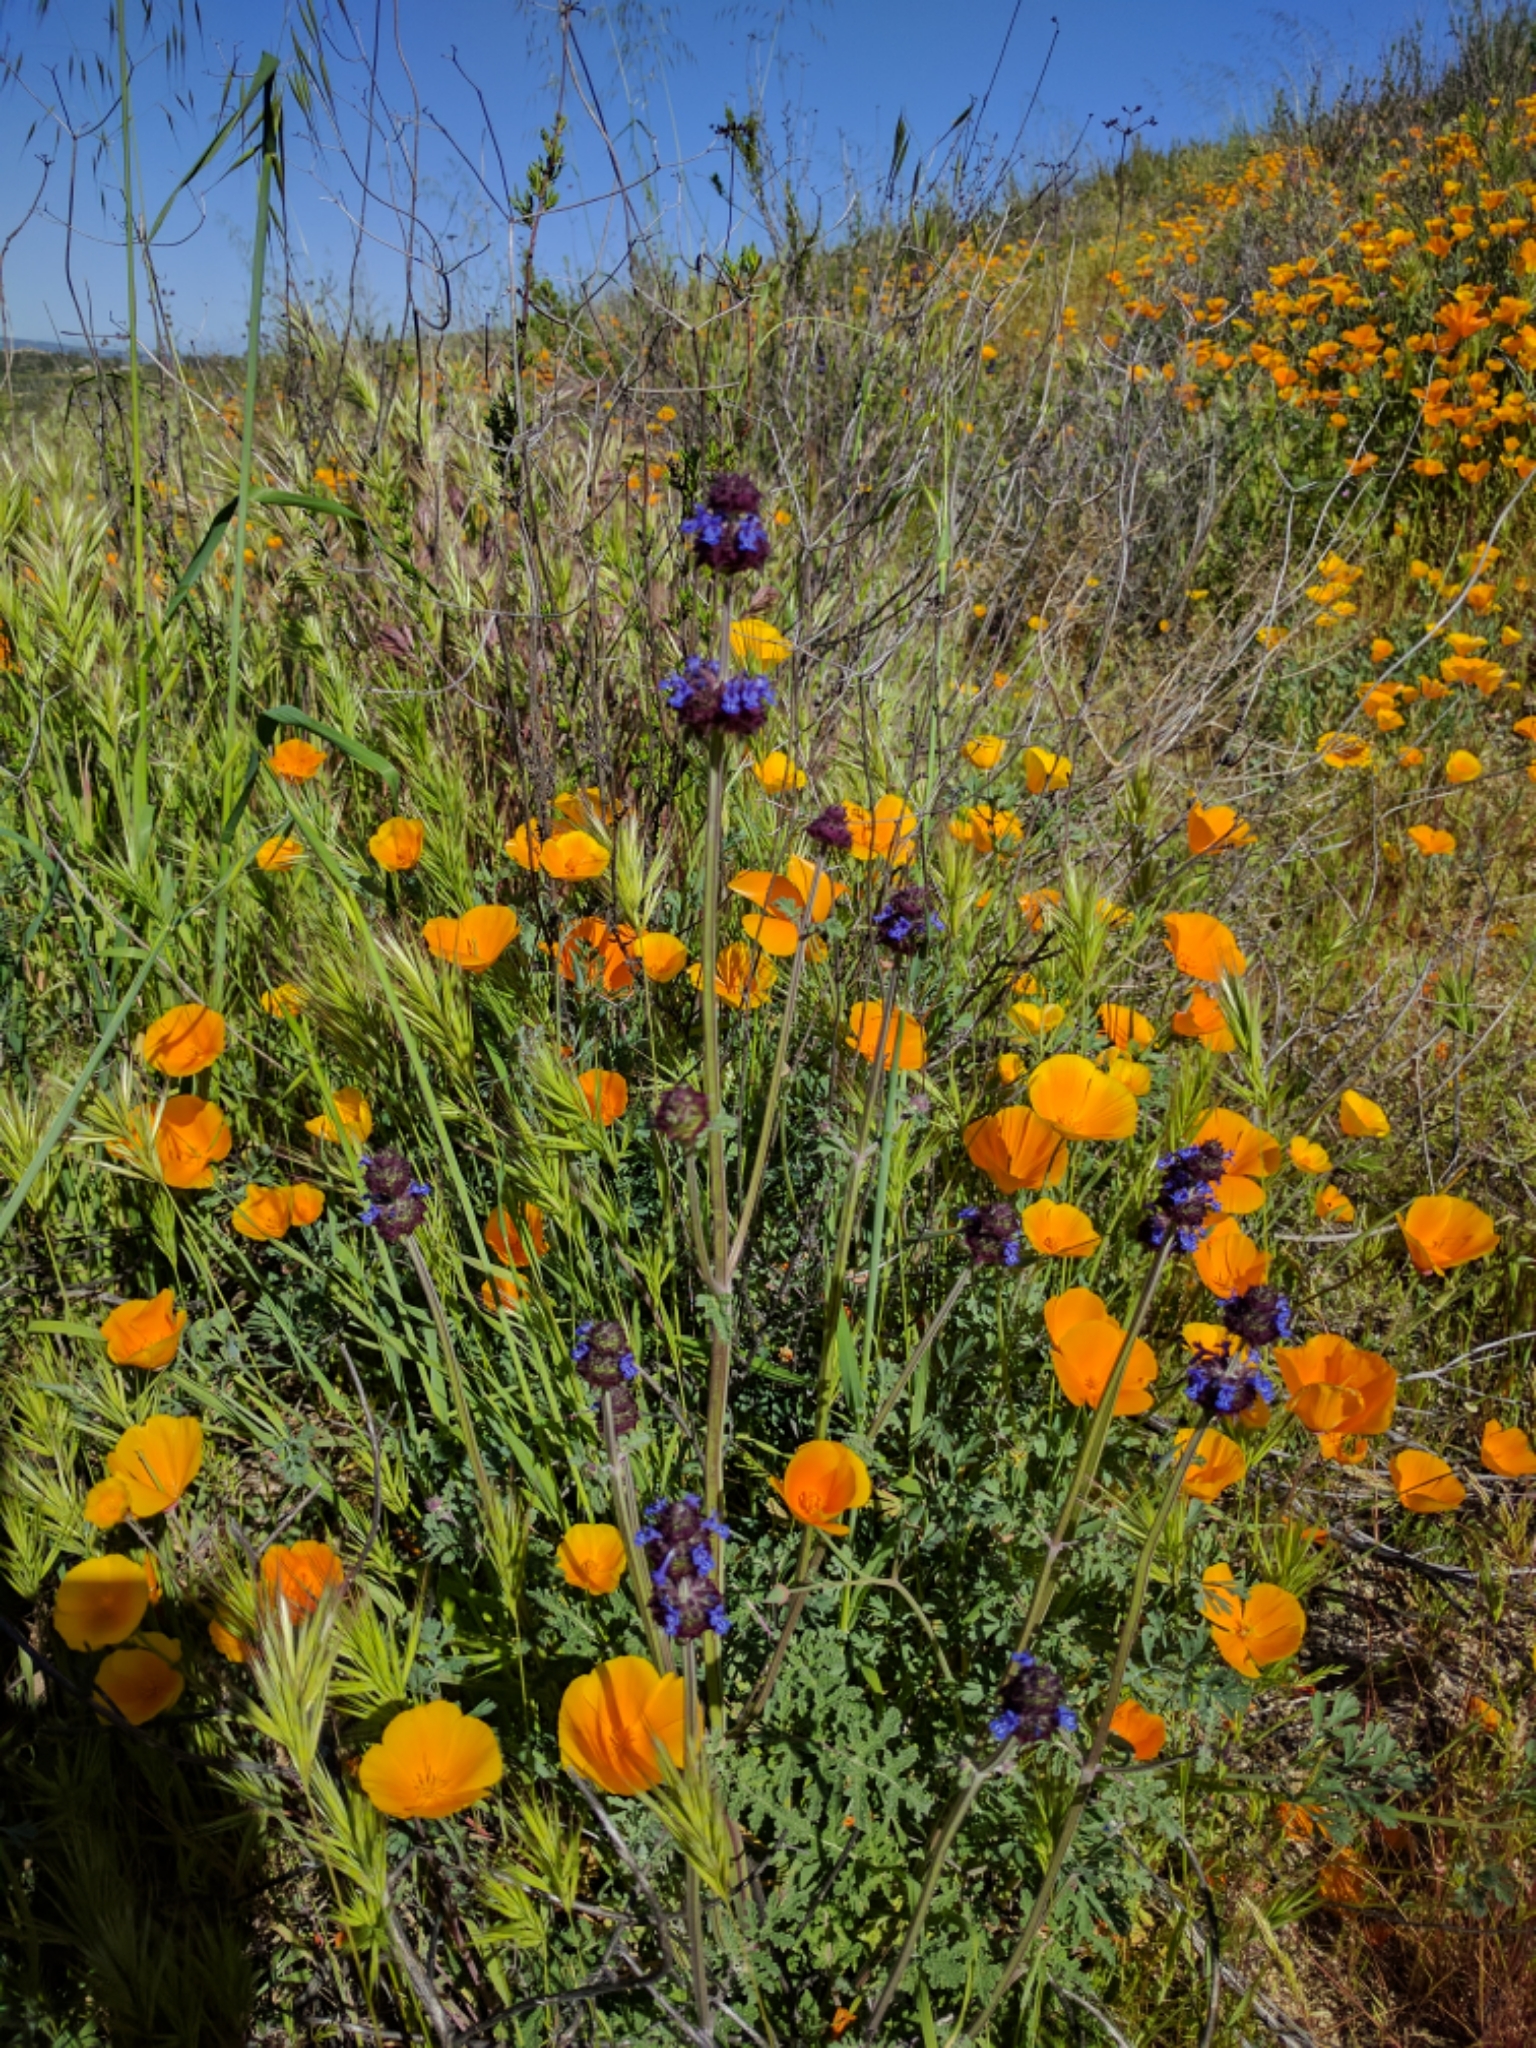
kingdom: Plantae
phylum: Tracheophyta
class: Magnoliopsida
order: Lamiales
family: Lamiaceae
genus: Salvia
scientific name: Salvia columbariae
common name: Chia
